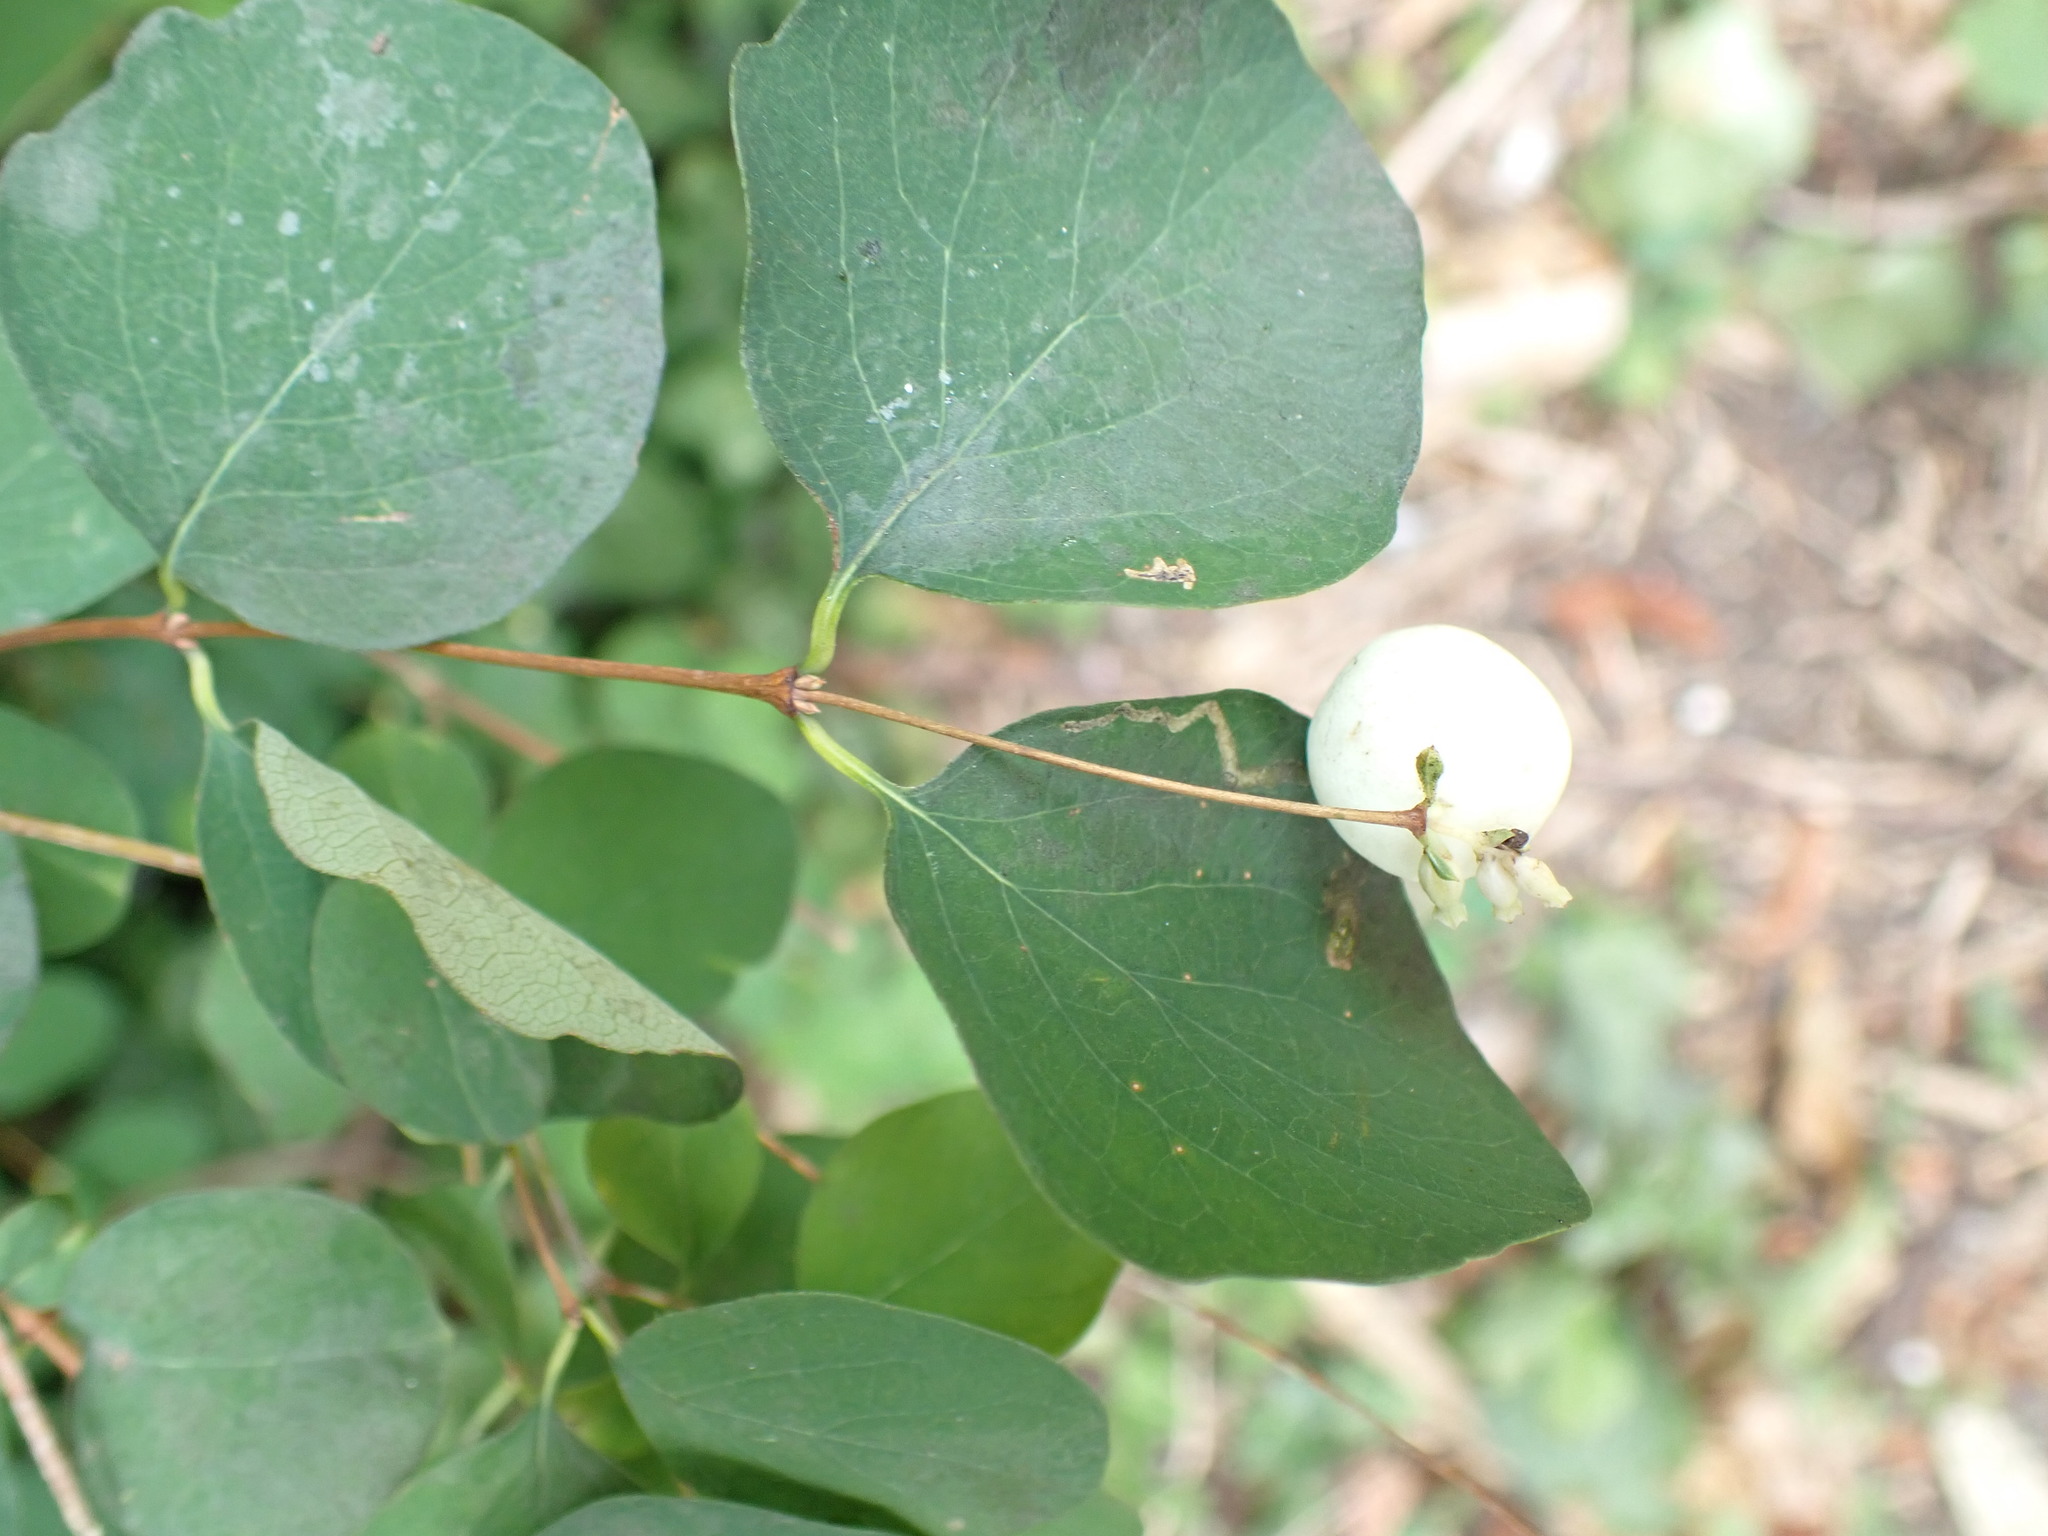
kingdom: Plantae
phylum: Tracheophyta
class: Magnoliopsida
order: Dipsacales
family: Caprifoliaceae
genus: Symphoricarpos
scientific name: Symphoricarpos albus
